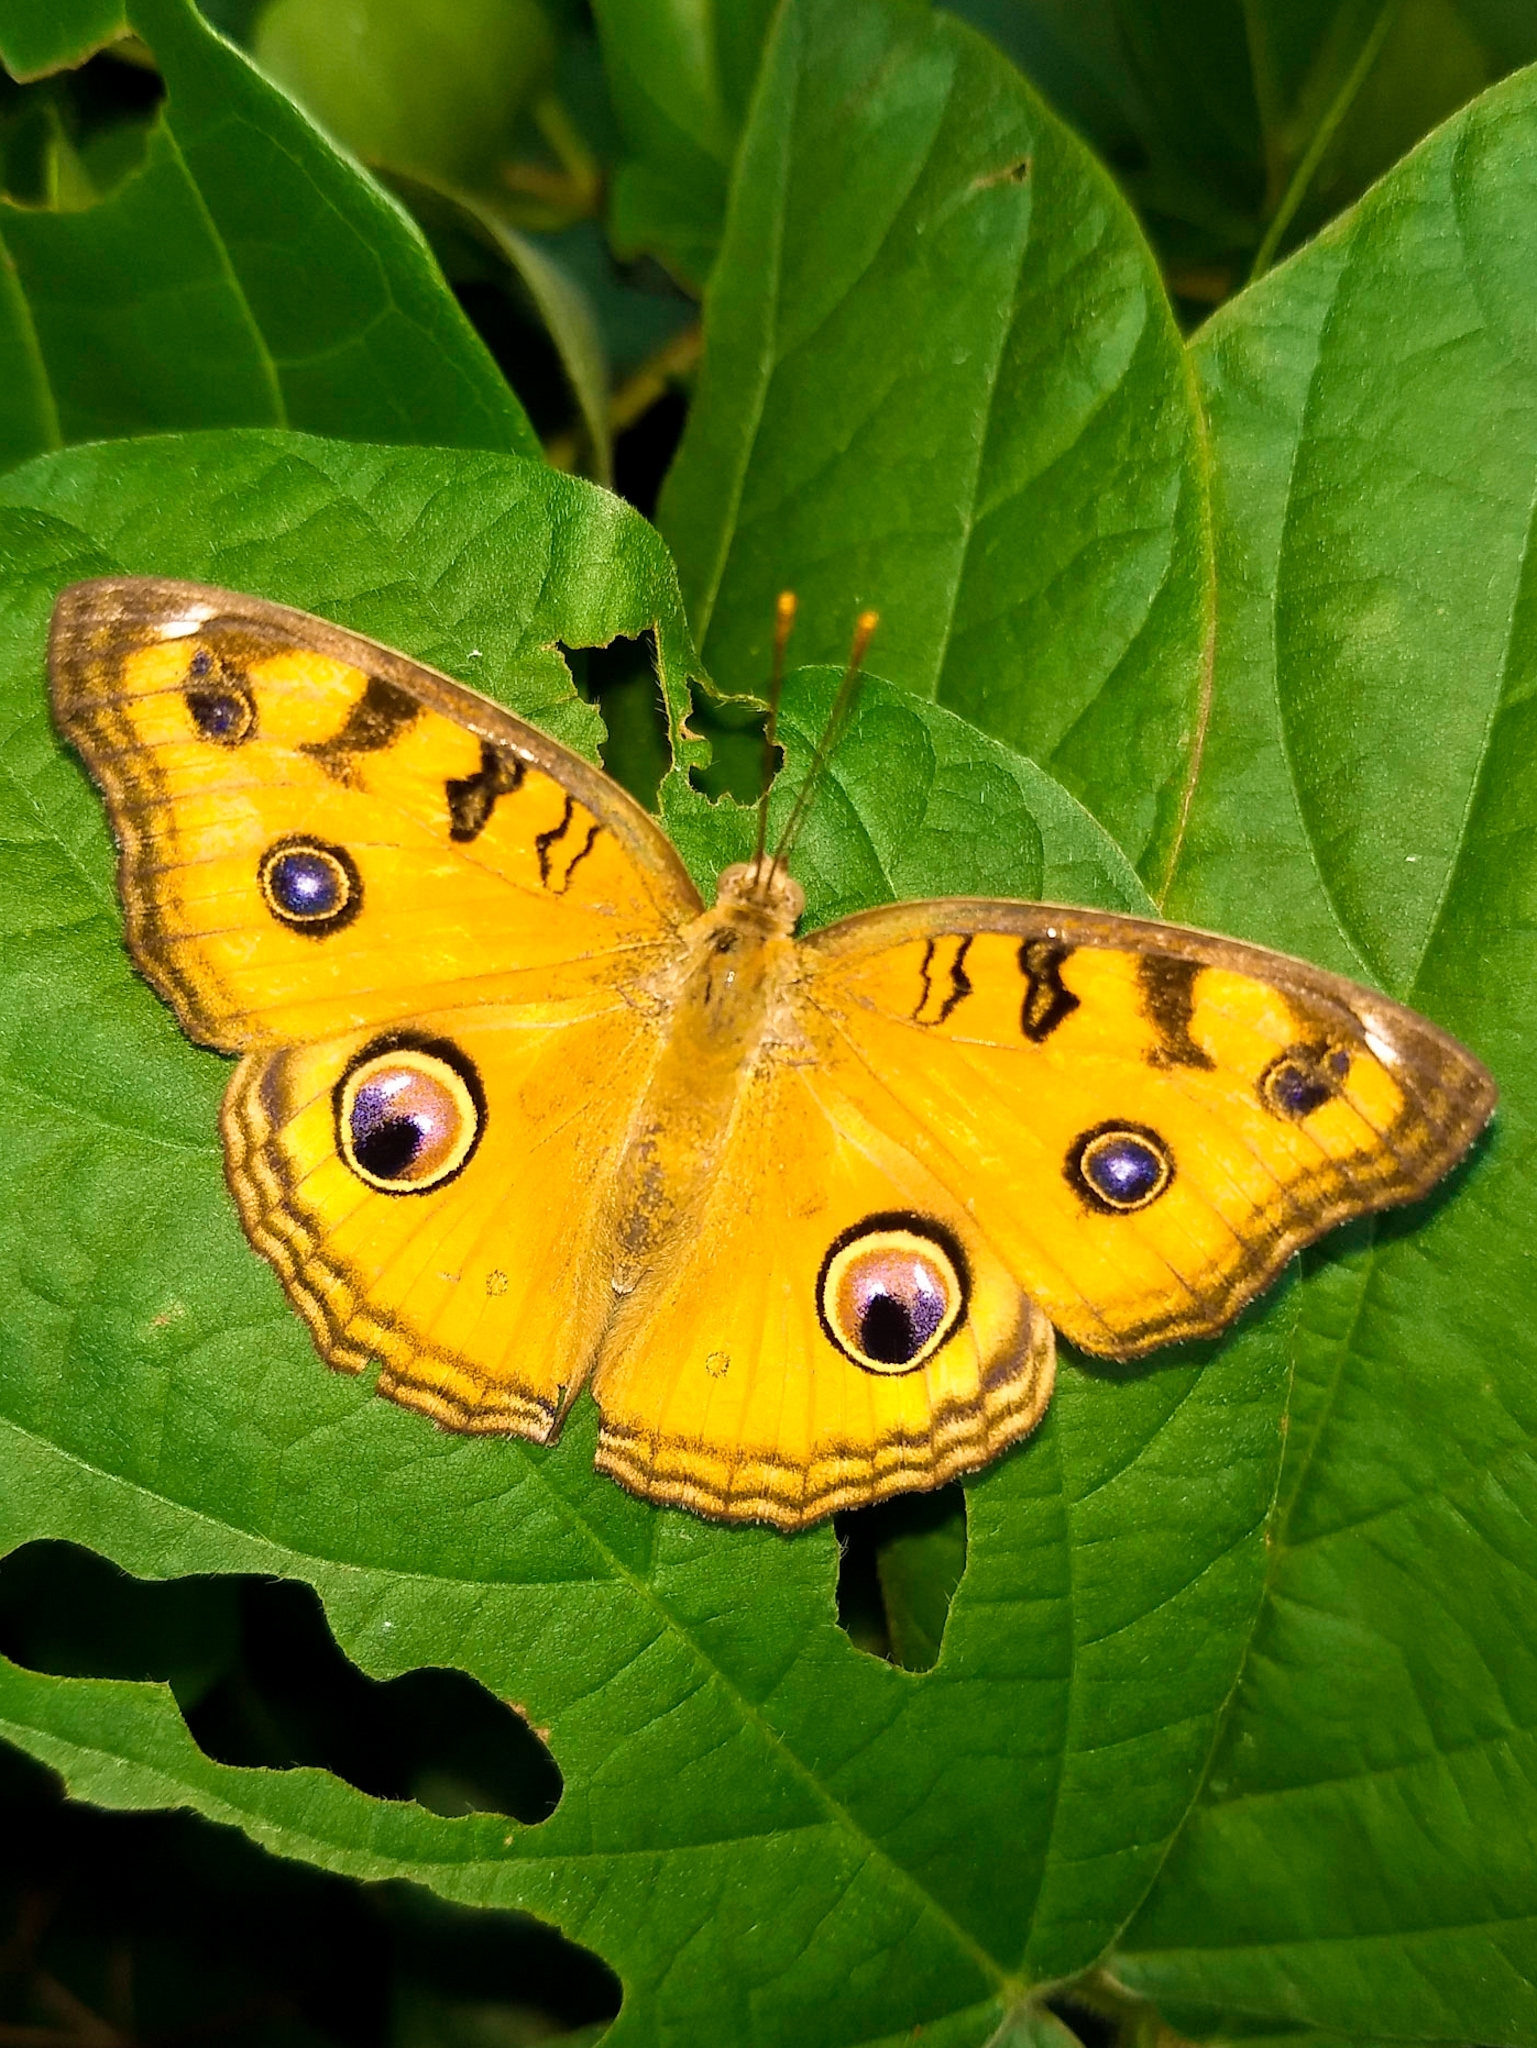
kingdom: Animalia
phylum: Arthropoda
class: Insecta
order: Lepidoptera
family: Nymphalidae
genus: Junonia
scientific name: Junonia almana
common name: Peacock pansy
